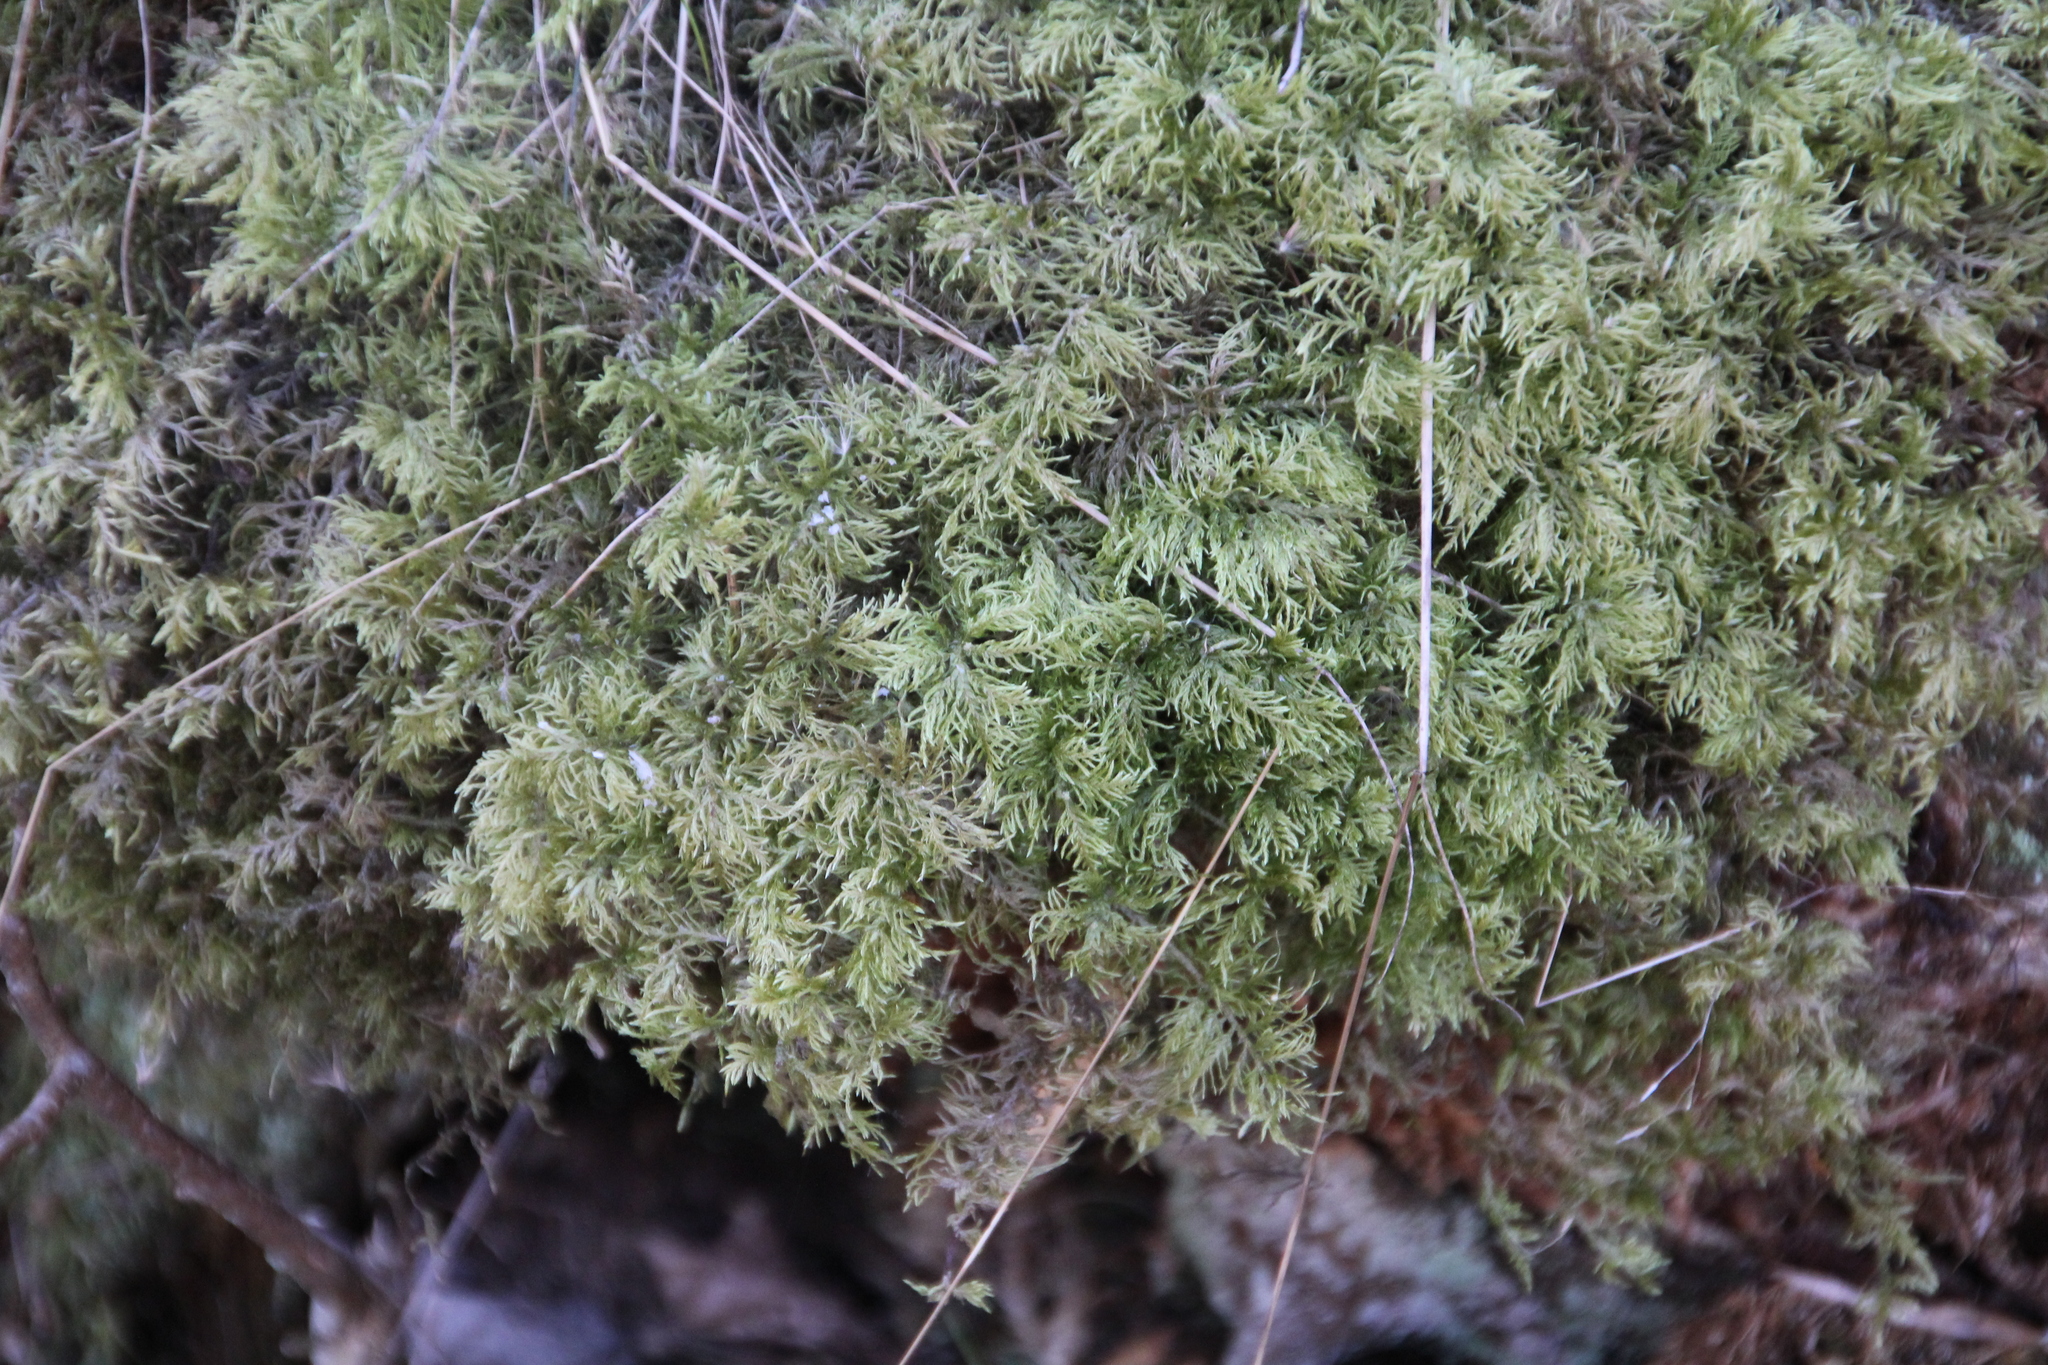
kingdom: Plantae
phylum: Bryophyta
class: Bryopsida
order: Hypnales
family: Hylocomiaceae
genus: Hylocomium
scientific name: Hylocomium splendens
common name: Stairstep moss
